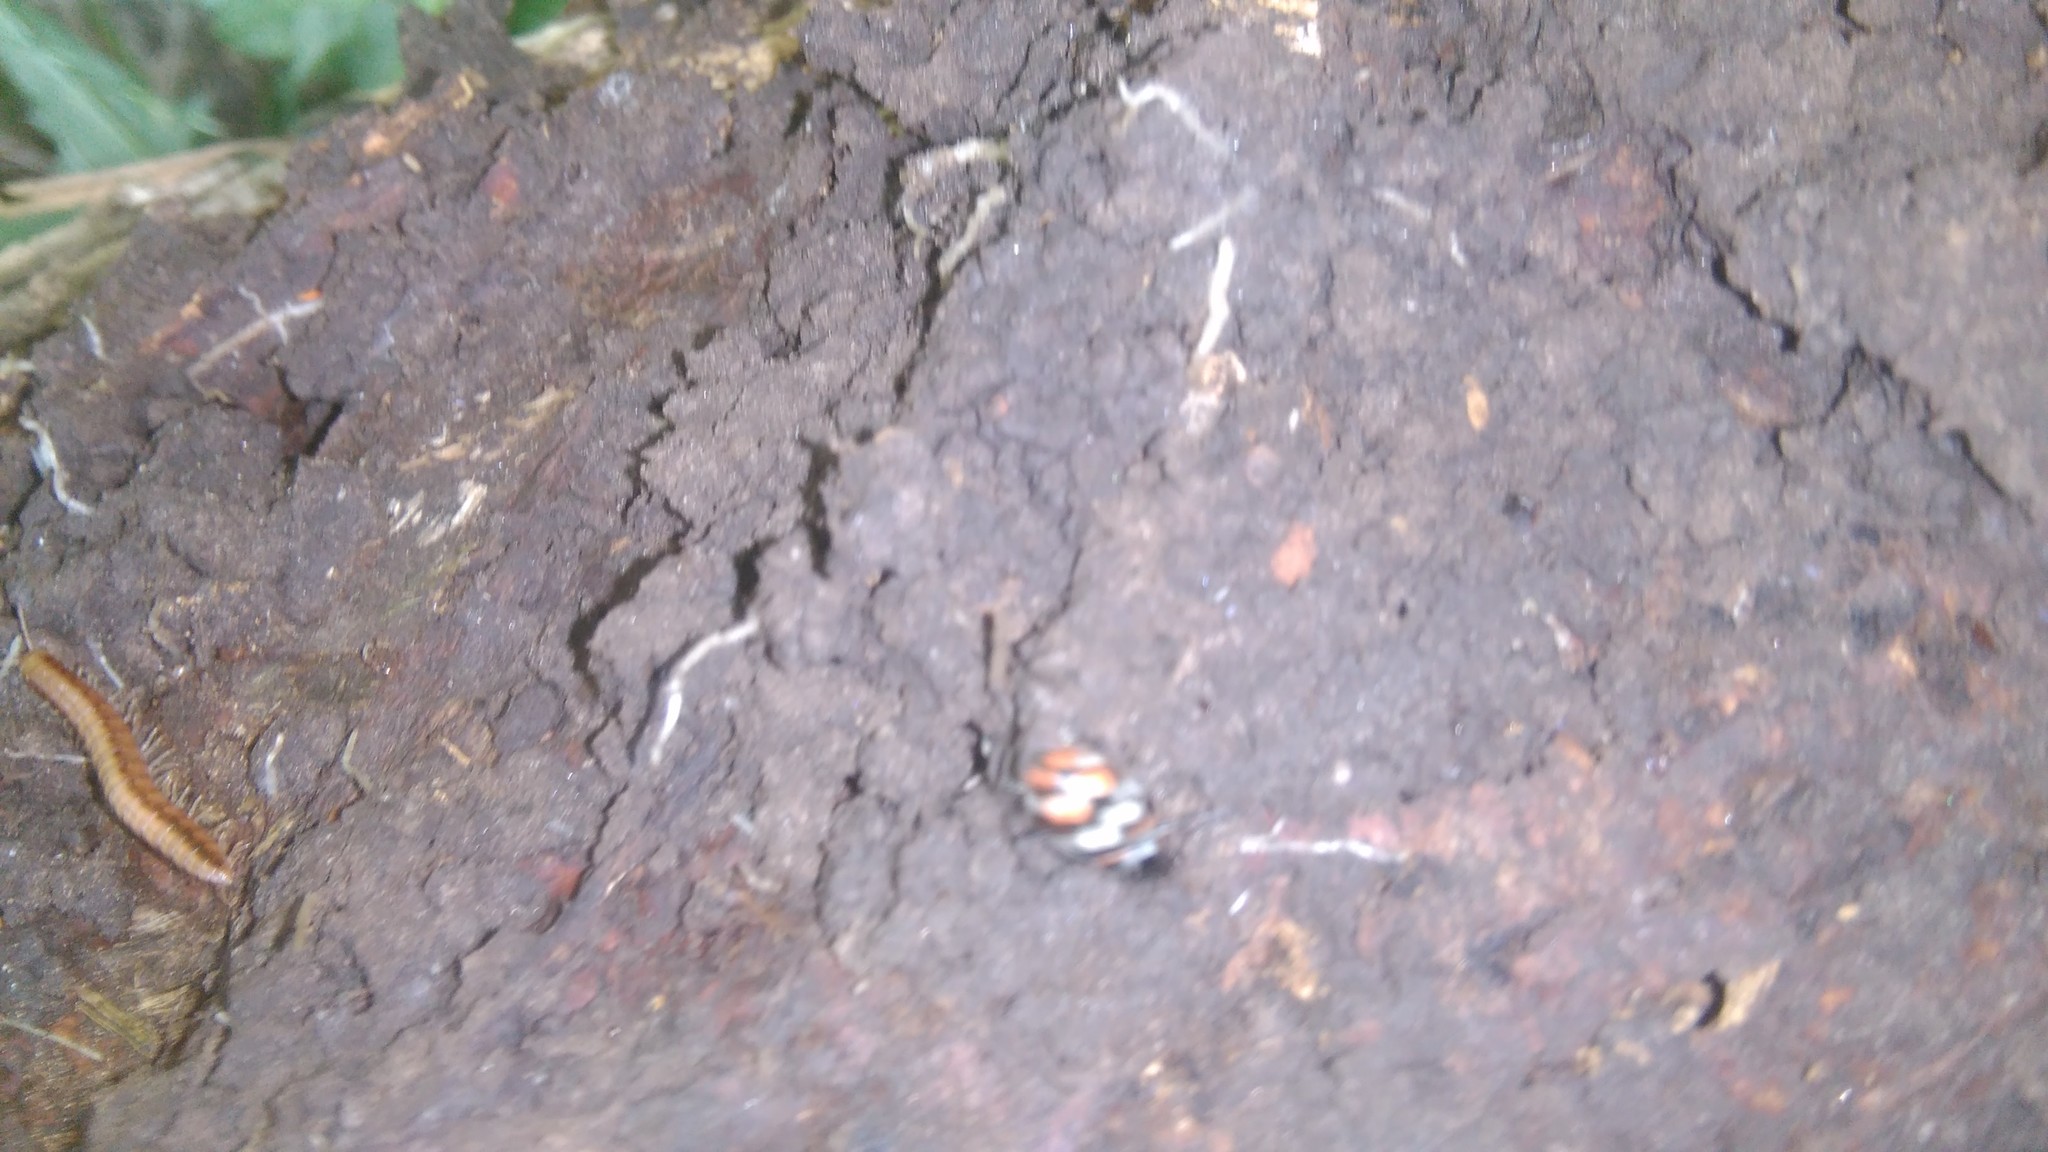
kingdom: Animalia
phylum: Arthropoda
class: Insecta
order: Coleoptera
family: Coccinellidae
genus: Eriopis
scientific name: Eriopis connexa
